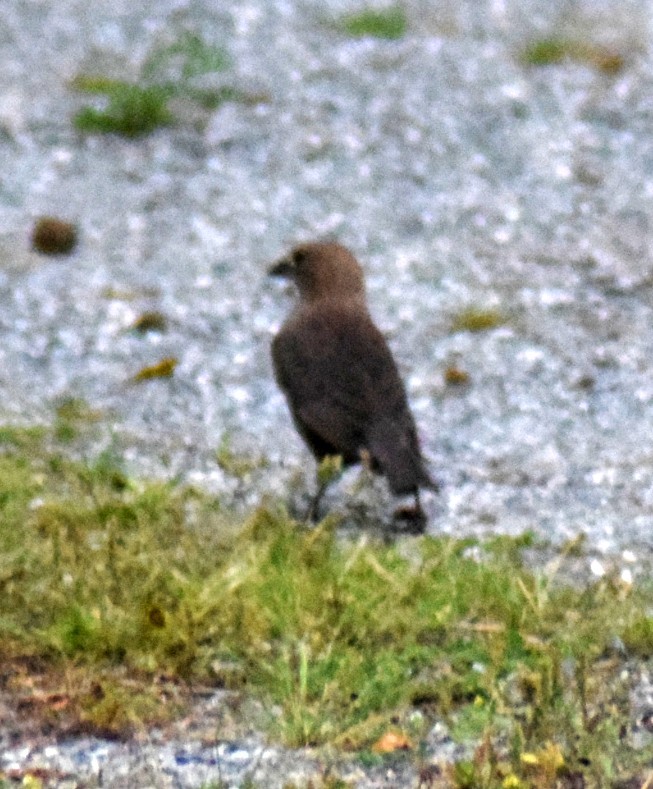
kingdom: Animalia
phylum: Chordata
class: Aves
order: Passeriformes
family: Icteridae
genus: Molothrus
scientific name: Molothrus ater
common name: Brown-headed cowbird
